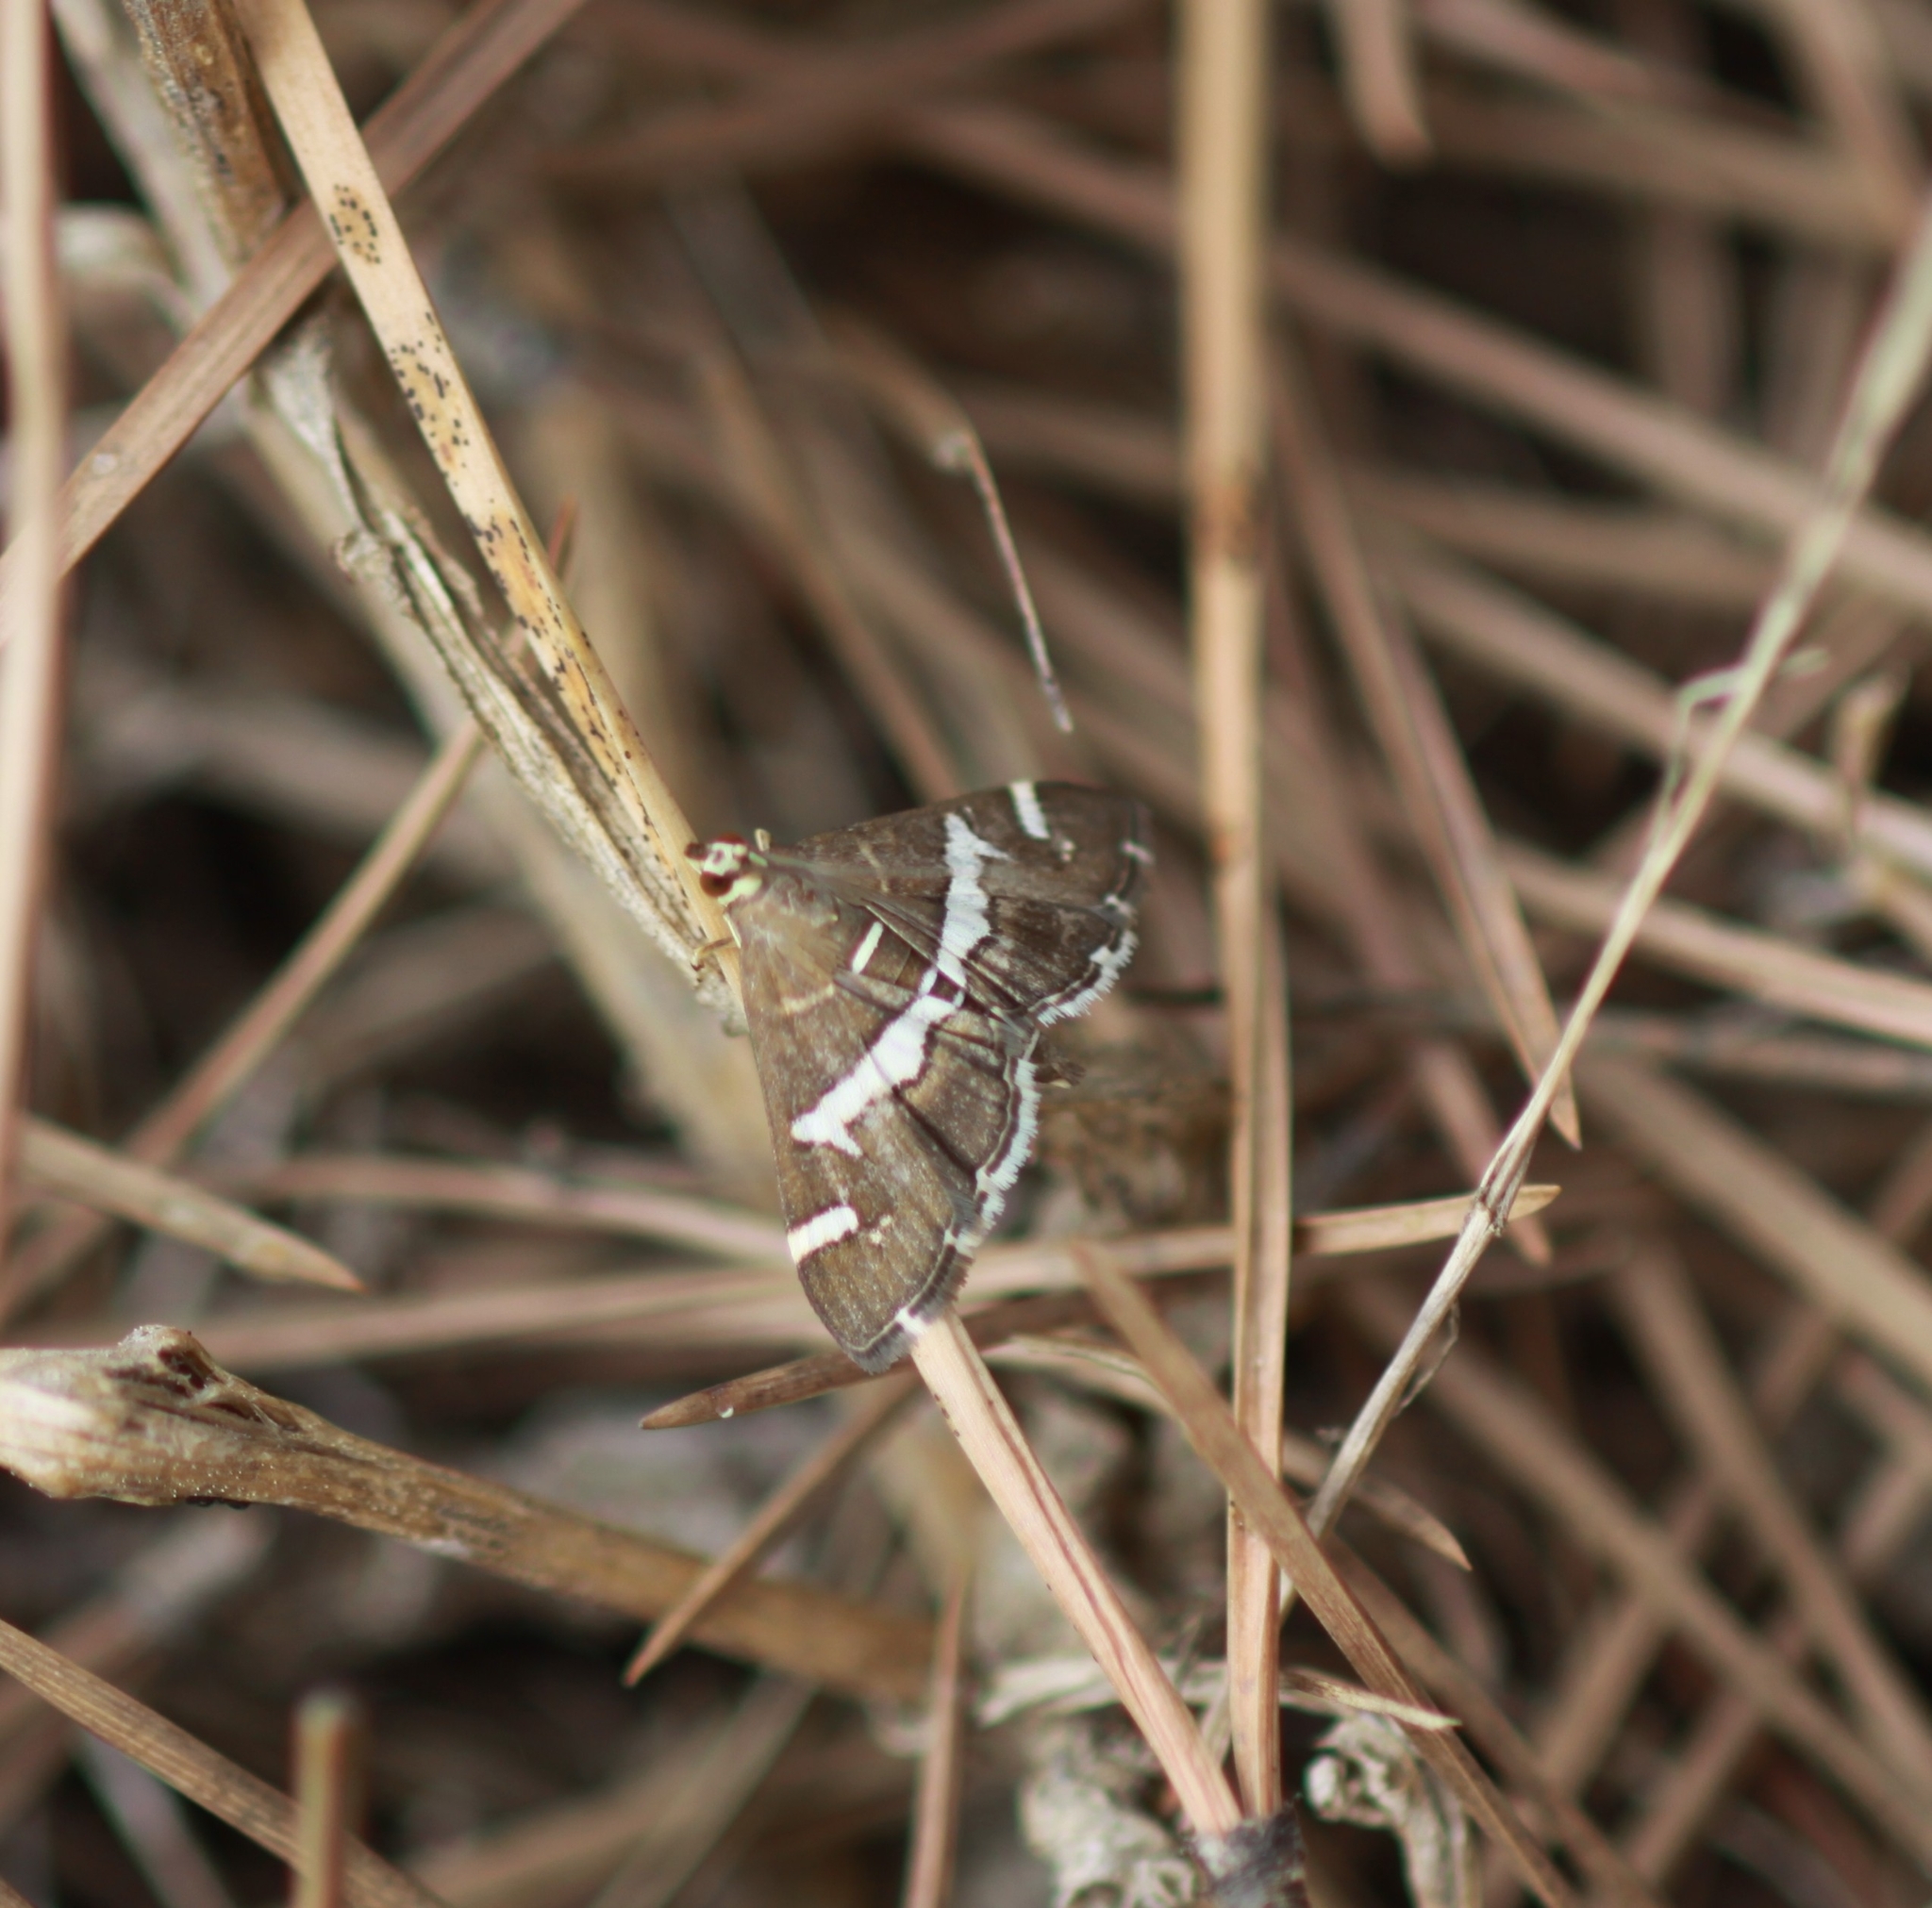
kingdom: Animalia
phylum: Arthropoda
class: Insecta
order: Lepidoptera
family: Crambidae
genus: Spoladea
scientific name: Spoladea recurvalis
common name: Beet webworm moth
